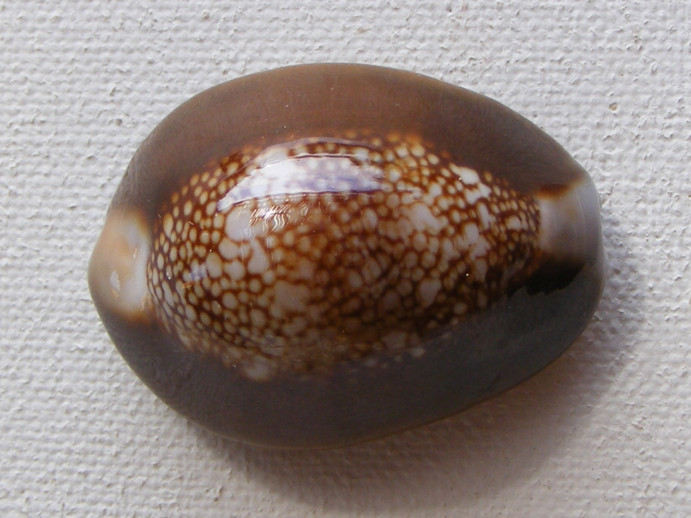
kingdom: Animalia
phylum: Mollusca
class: Gastropoda
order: Littorinimorpha
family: Cypraeidae
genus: Monetaria
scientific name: Monetaria caputserpentis
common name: Serpent's head cowrie
